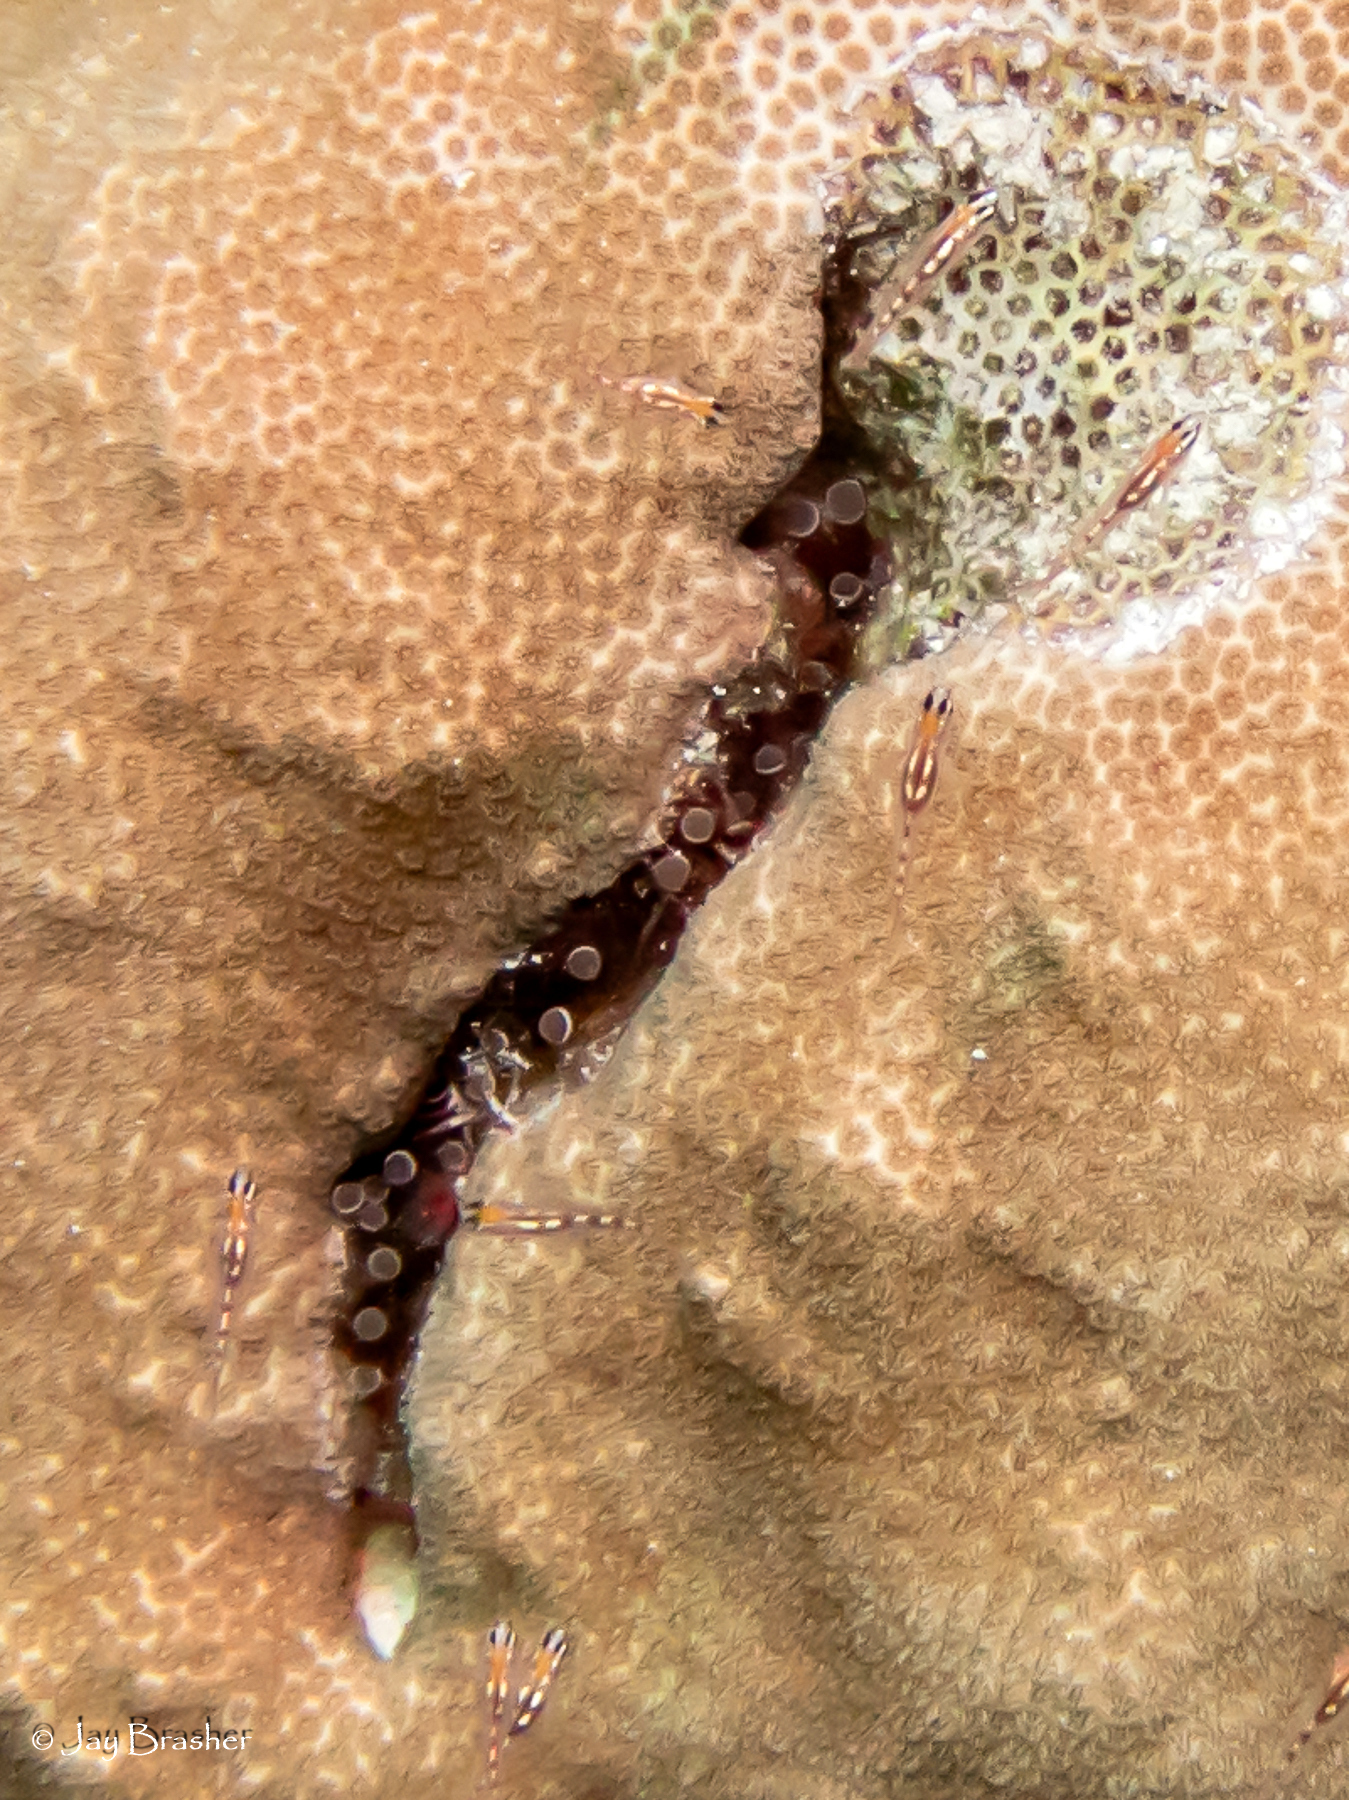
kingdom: Animalia
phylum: Cnidaria
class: Anthozoa
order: Actiniaria
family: Aliciidae
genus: Lebrunia
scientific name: Lebrunia coralligens
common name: Hidden anemone
